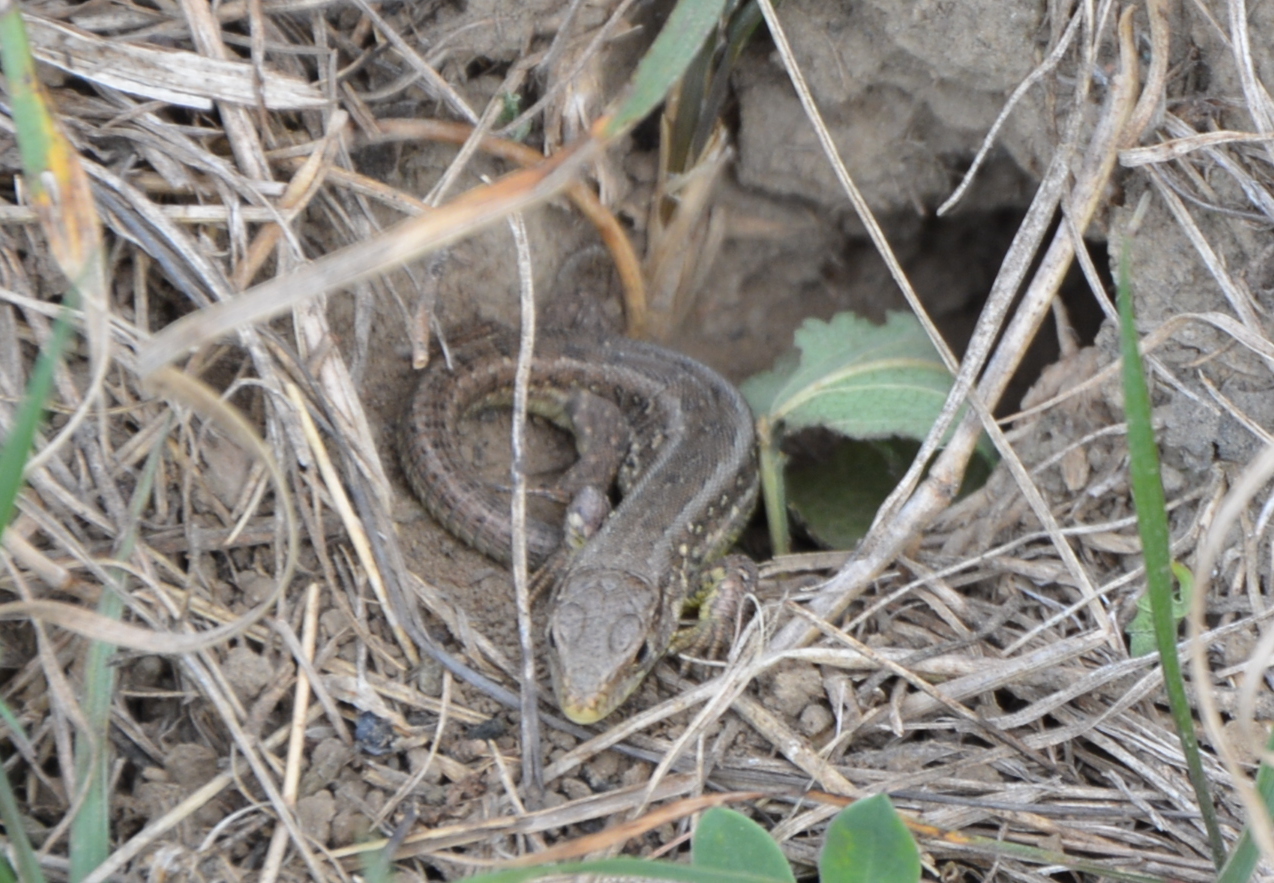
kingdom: Animalia
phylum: Chordata
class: Squamata
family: Lacertidae
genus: Lacerta
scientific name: Lacerta agilis
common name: Sand lizard
